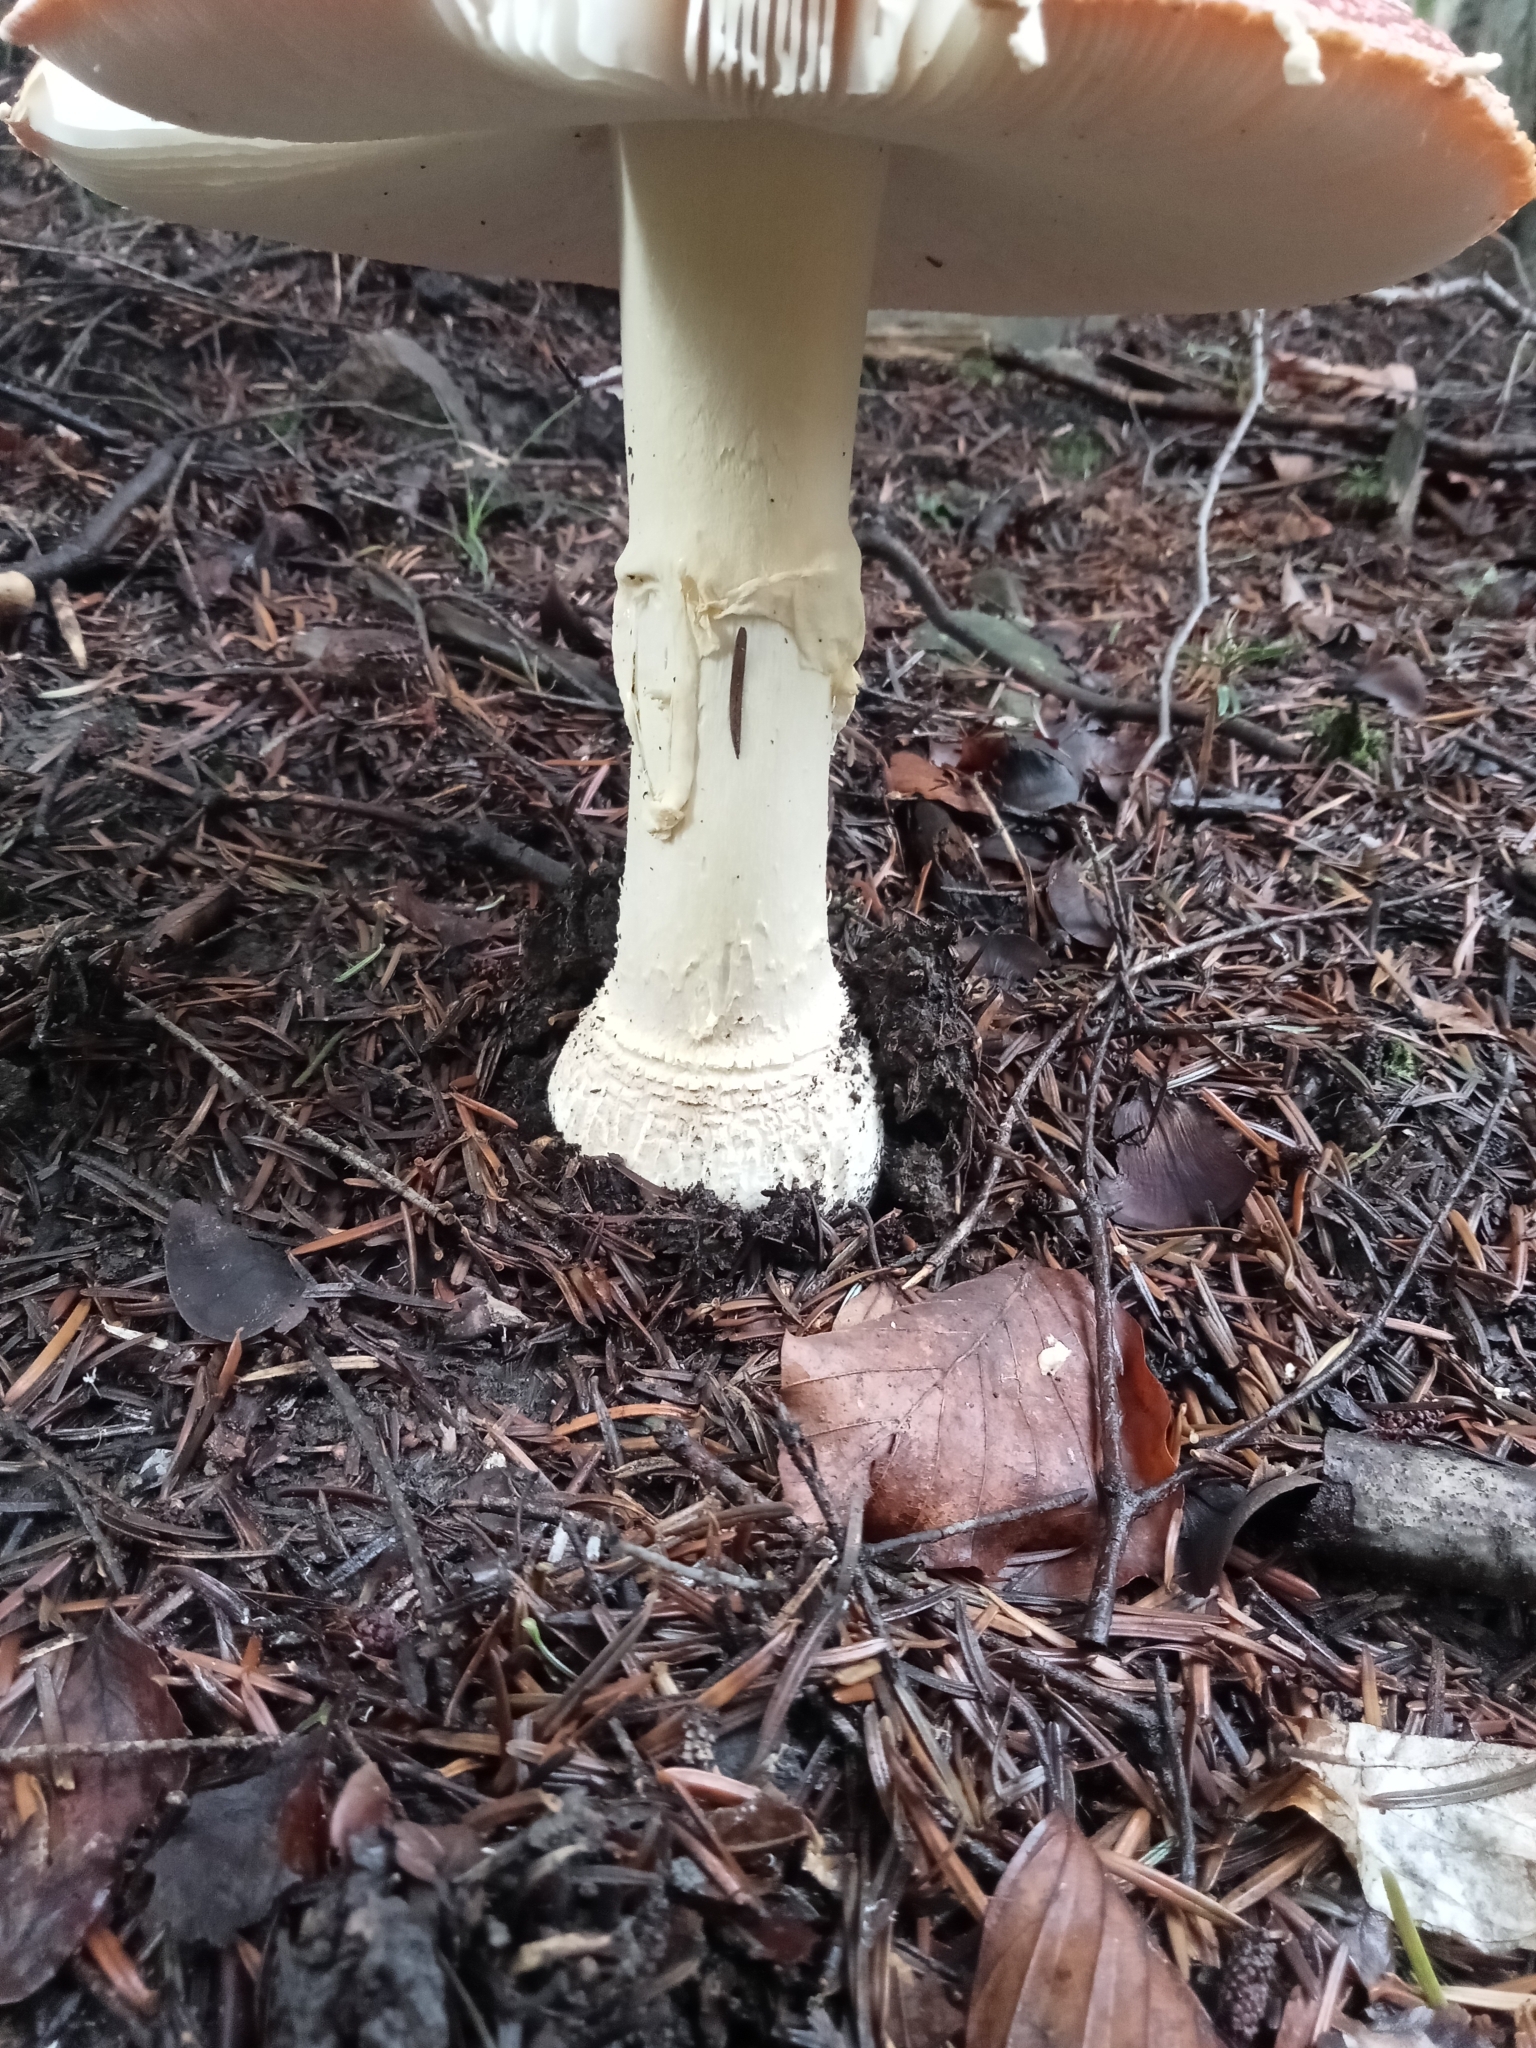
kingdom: Fungi
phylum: Basidiomycota
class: Agaricomycetes
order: Agaricales
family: Amanitaceae
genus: Amanita
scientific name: Amanita muscaria
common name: Fly agaric
